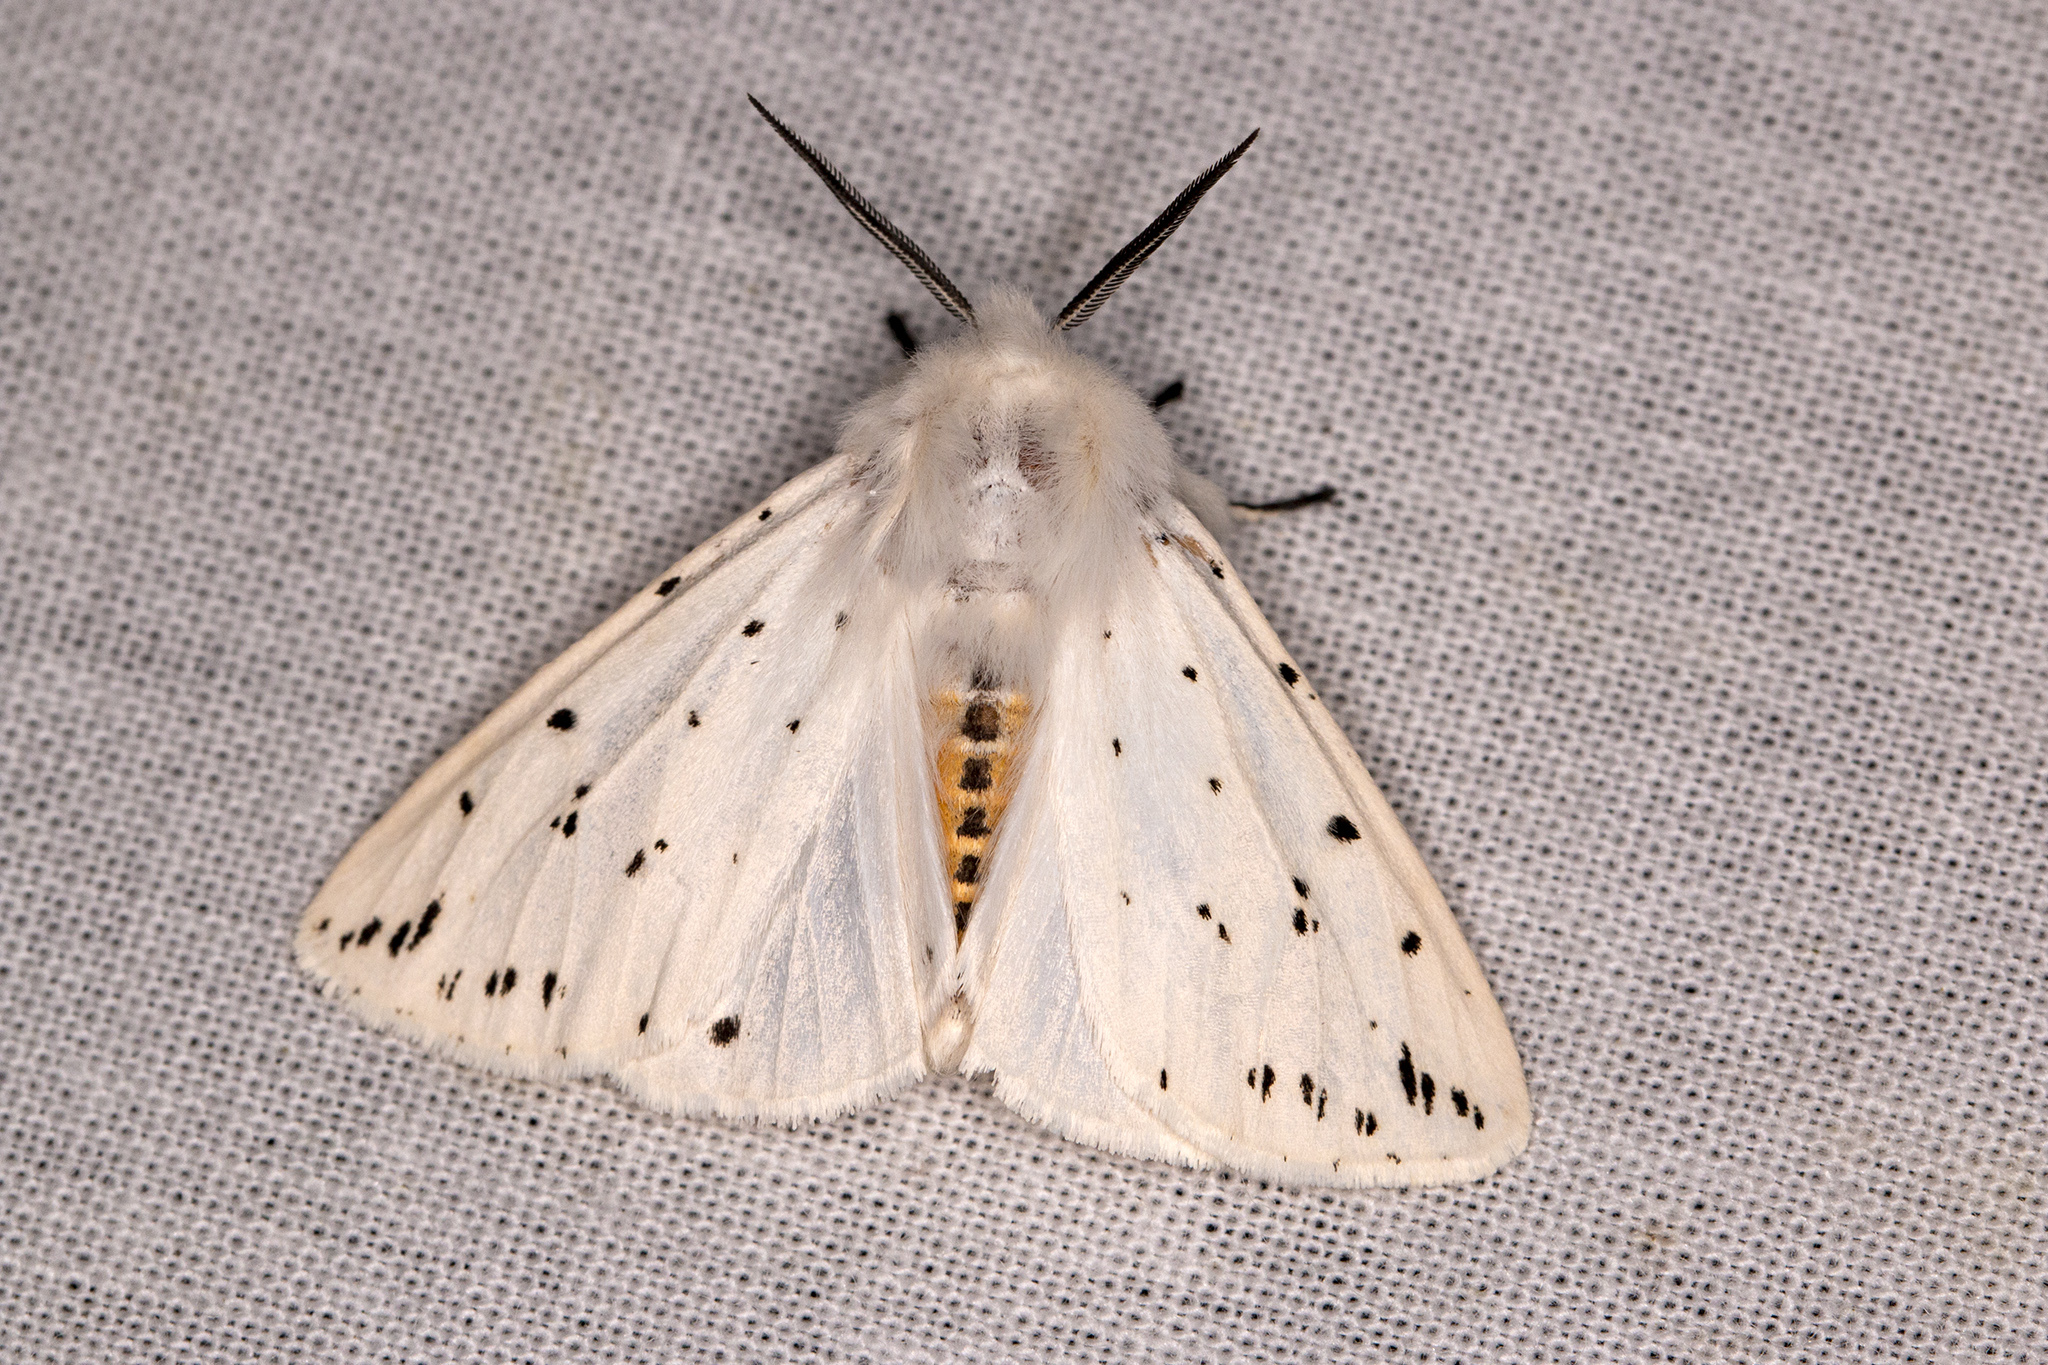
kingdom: Animalia
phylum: Arthropoda
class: Insecta
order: Lepidoptera
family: Erebidae
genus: Spilosoma
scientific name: Spilosoma lubricipeda
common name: White ermine
